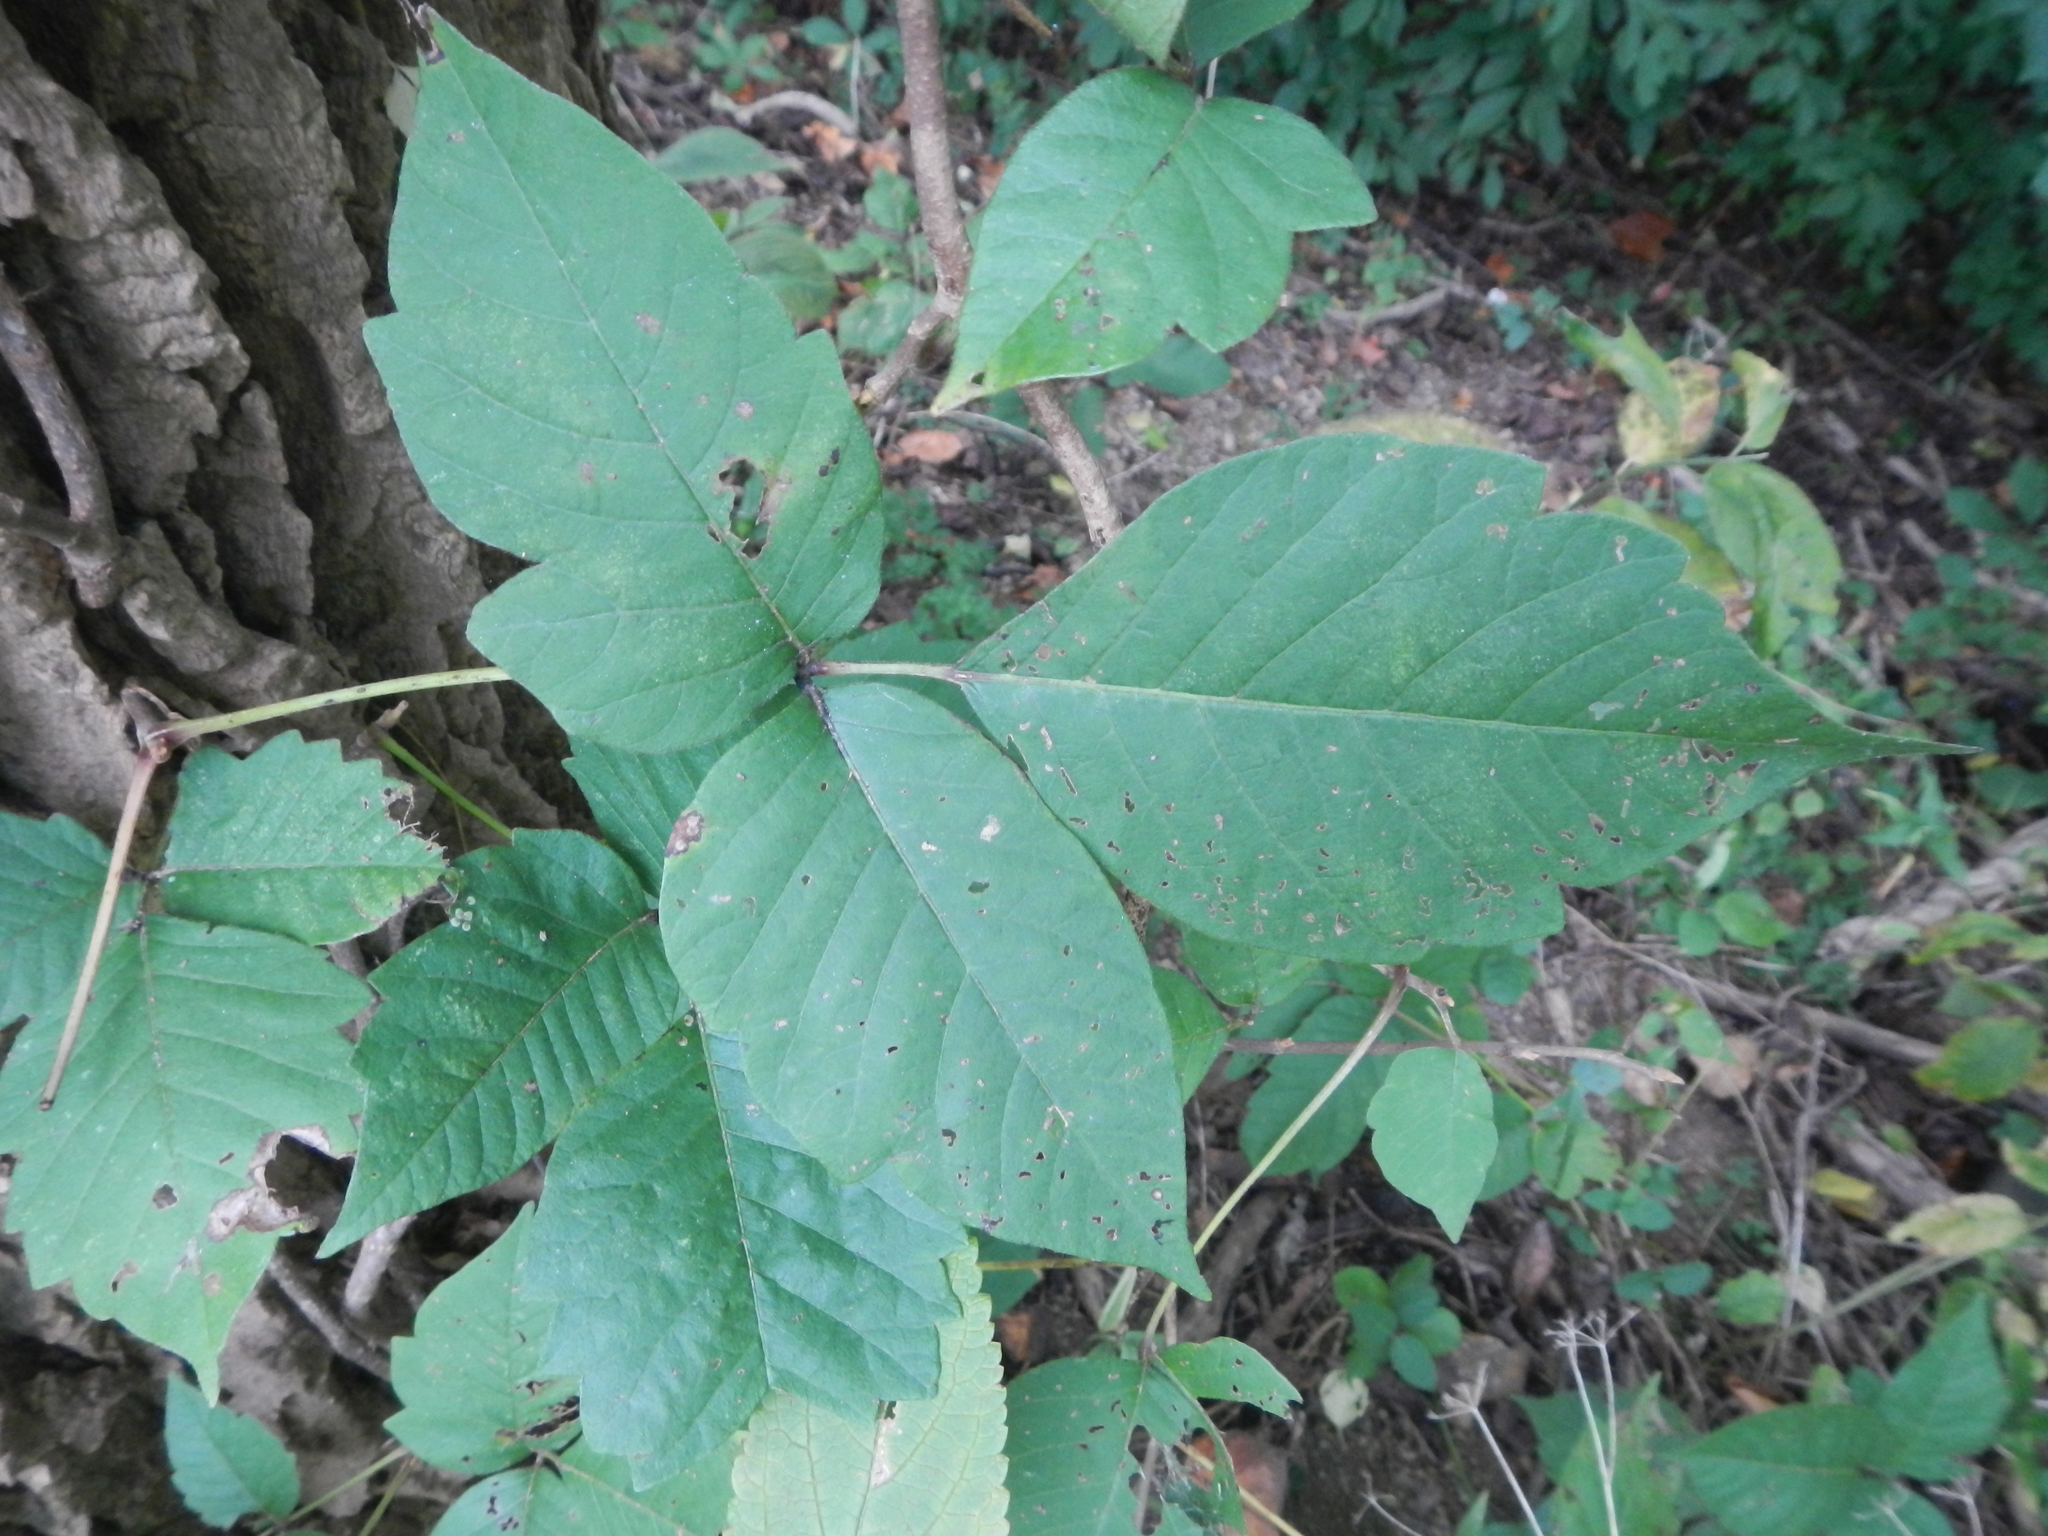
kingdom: Plantae
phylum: Tracheophyta
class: Magnoliopsida
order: Sapindales
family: Anacardiaceae
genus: Toxicodendron
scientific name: Toxicodendron radicans
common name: Poison ivy
